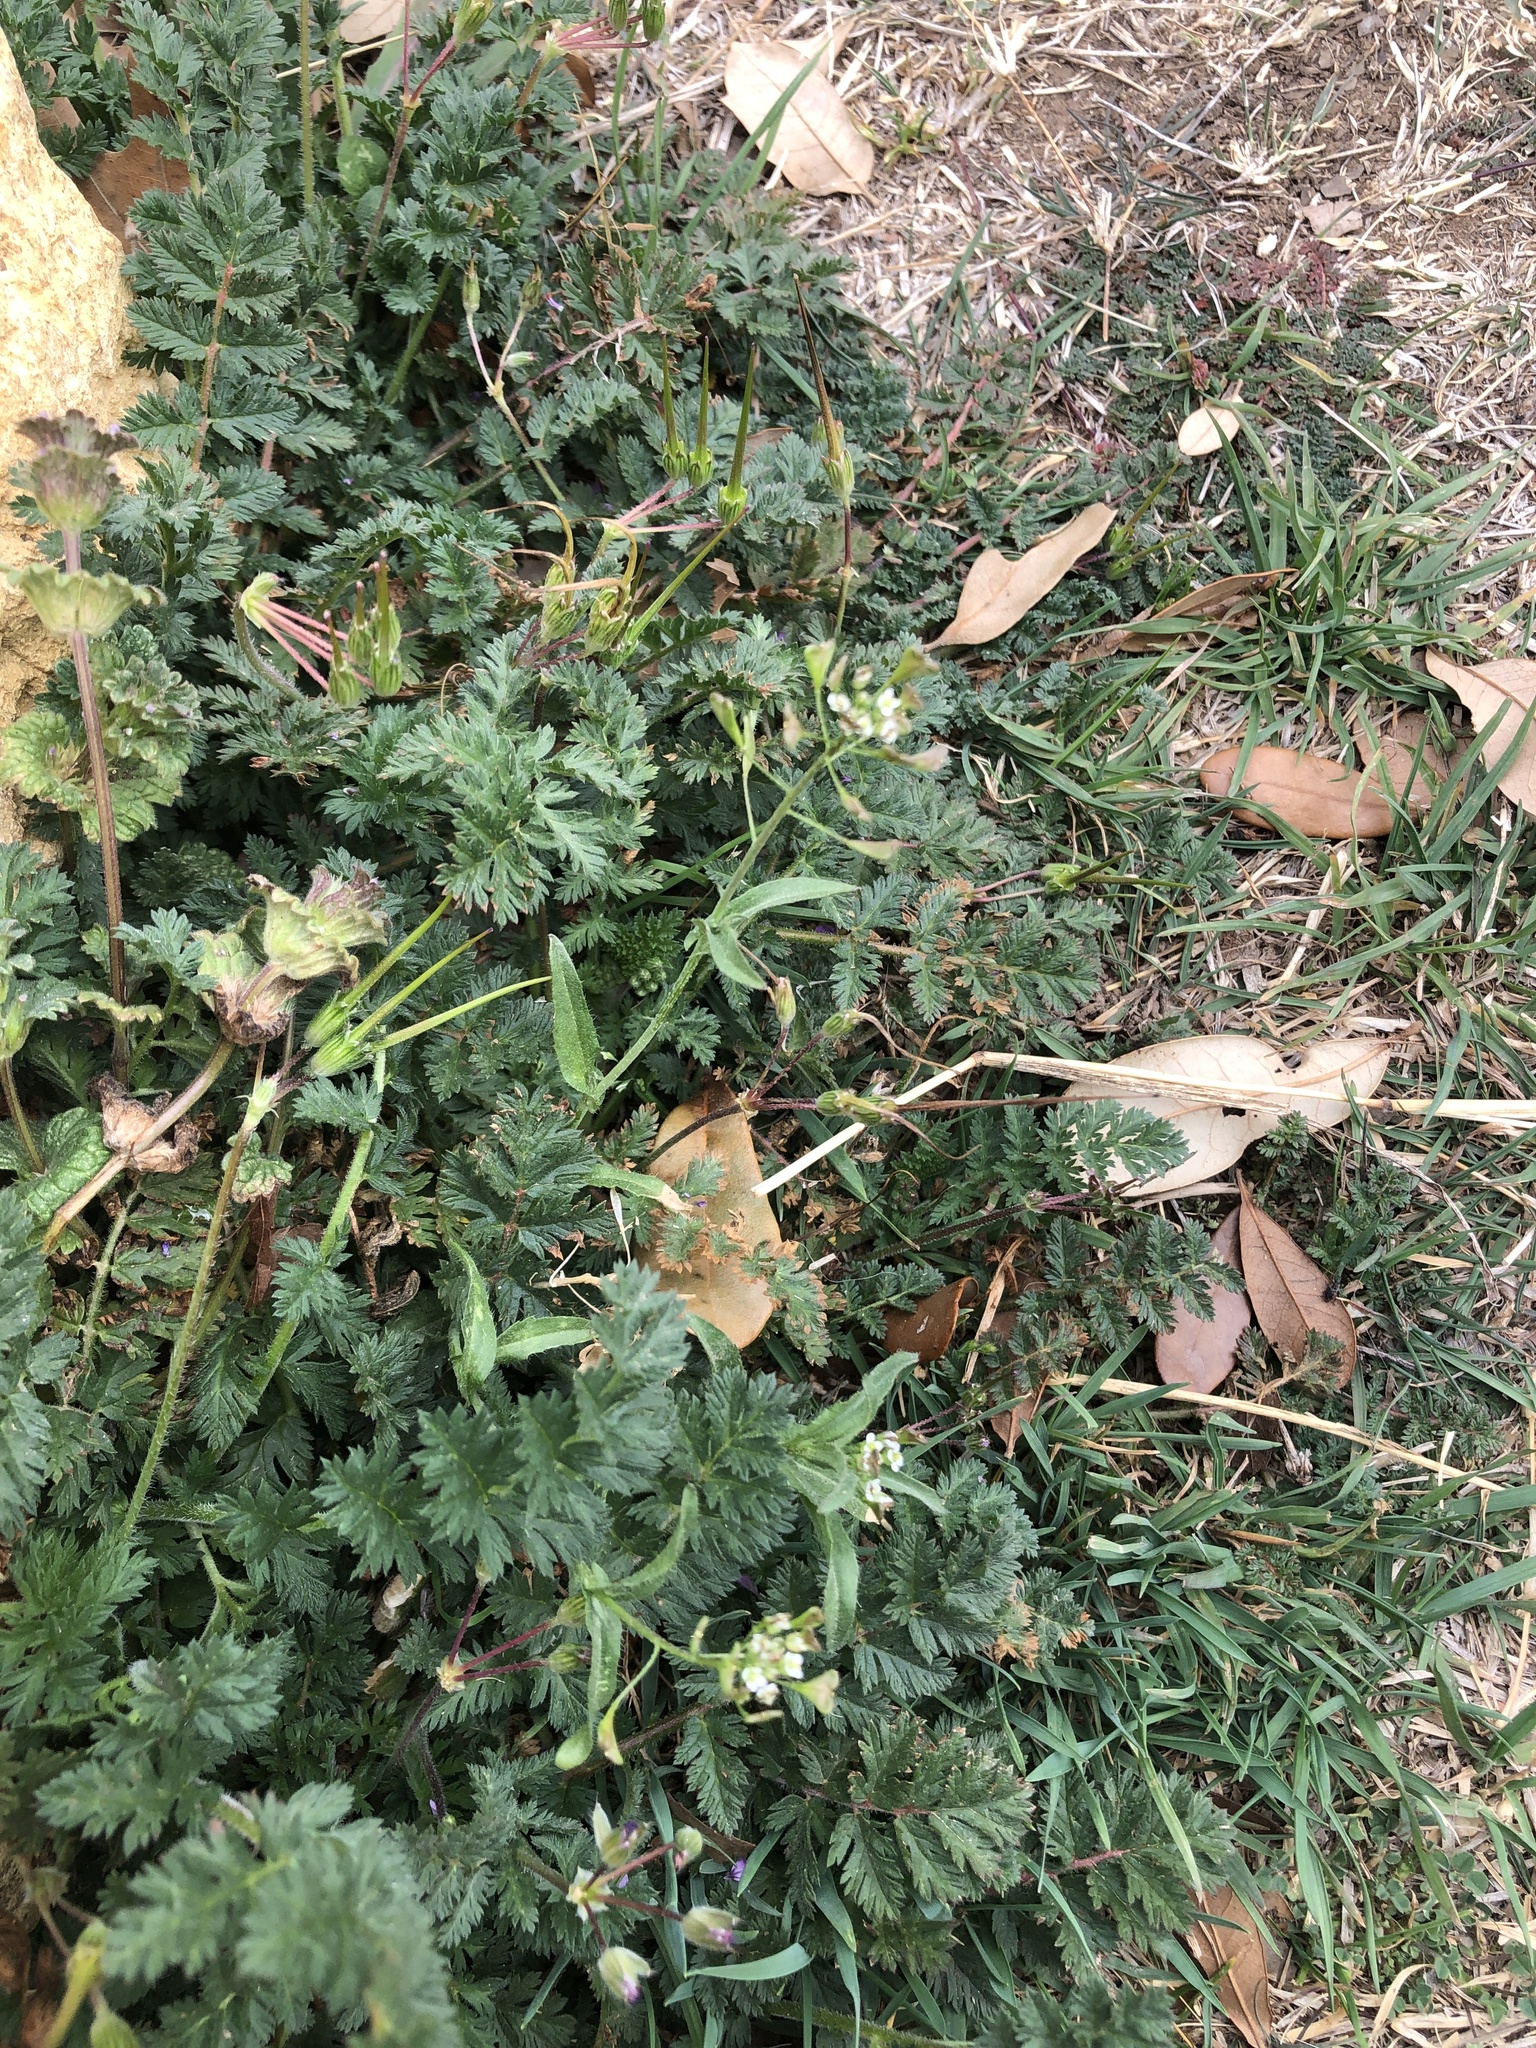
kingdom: Plantae
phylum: Tracheophyta
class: Magnoliopsida
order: Brassicales
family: Brassicaceae
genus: Capsella
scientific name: Capsella bursa-pastoris
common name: Shepherd's purse
